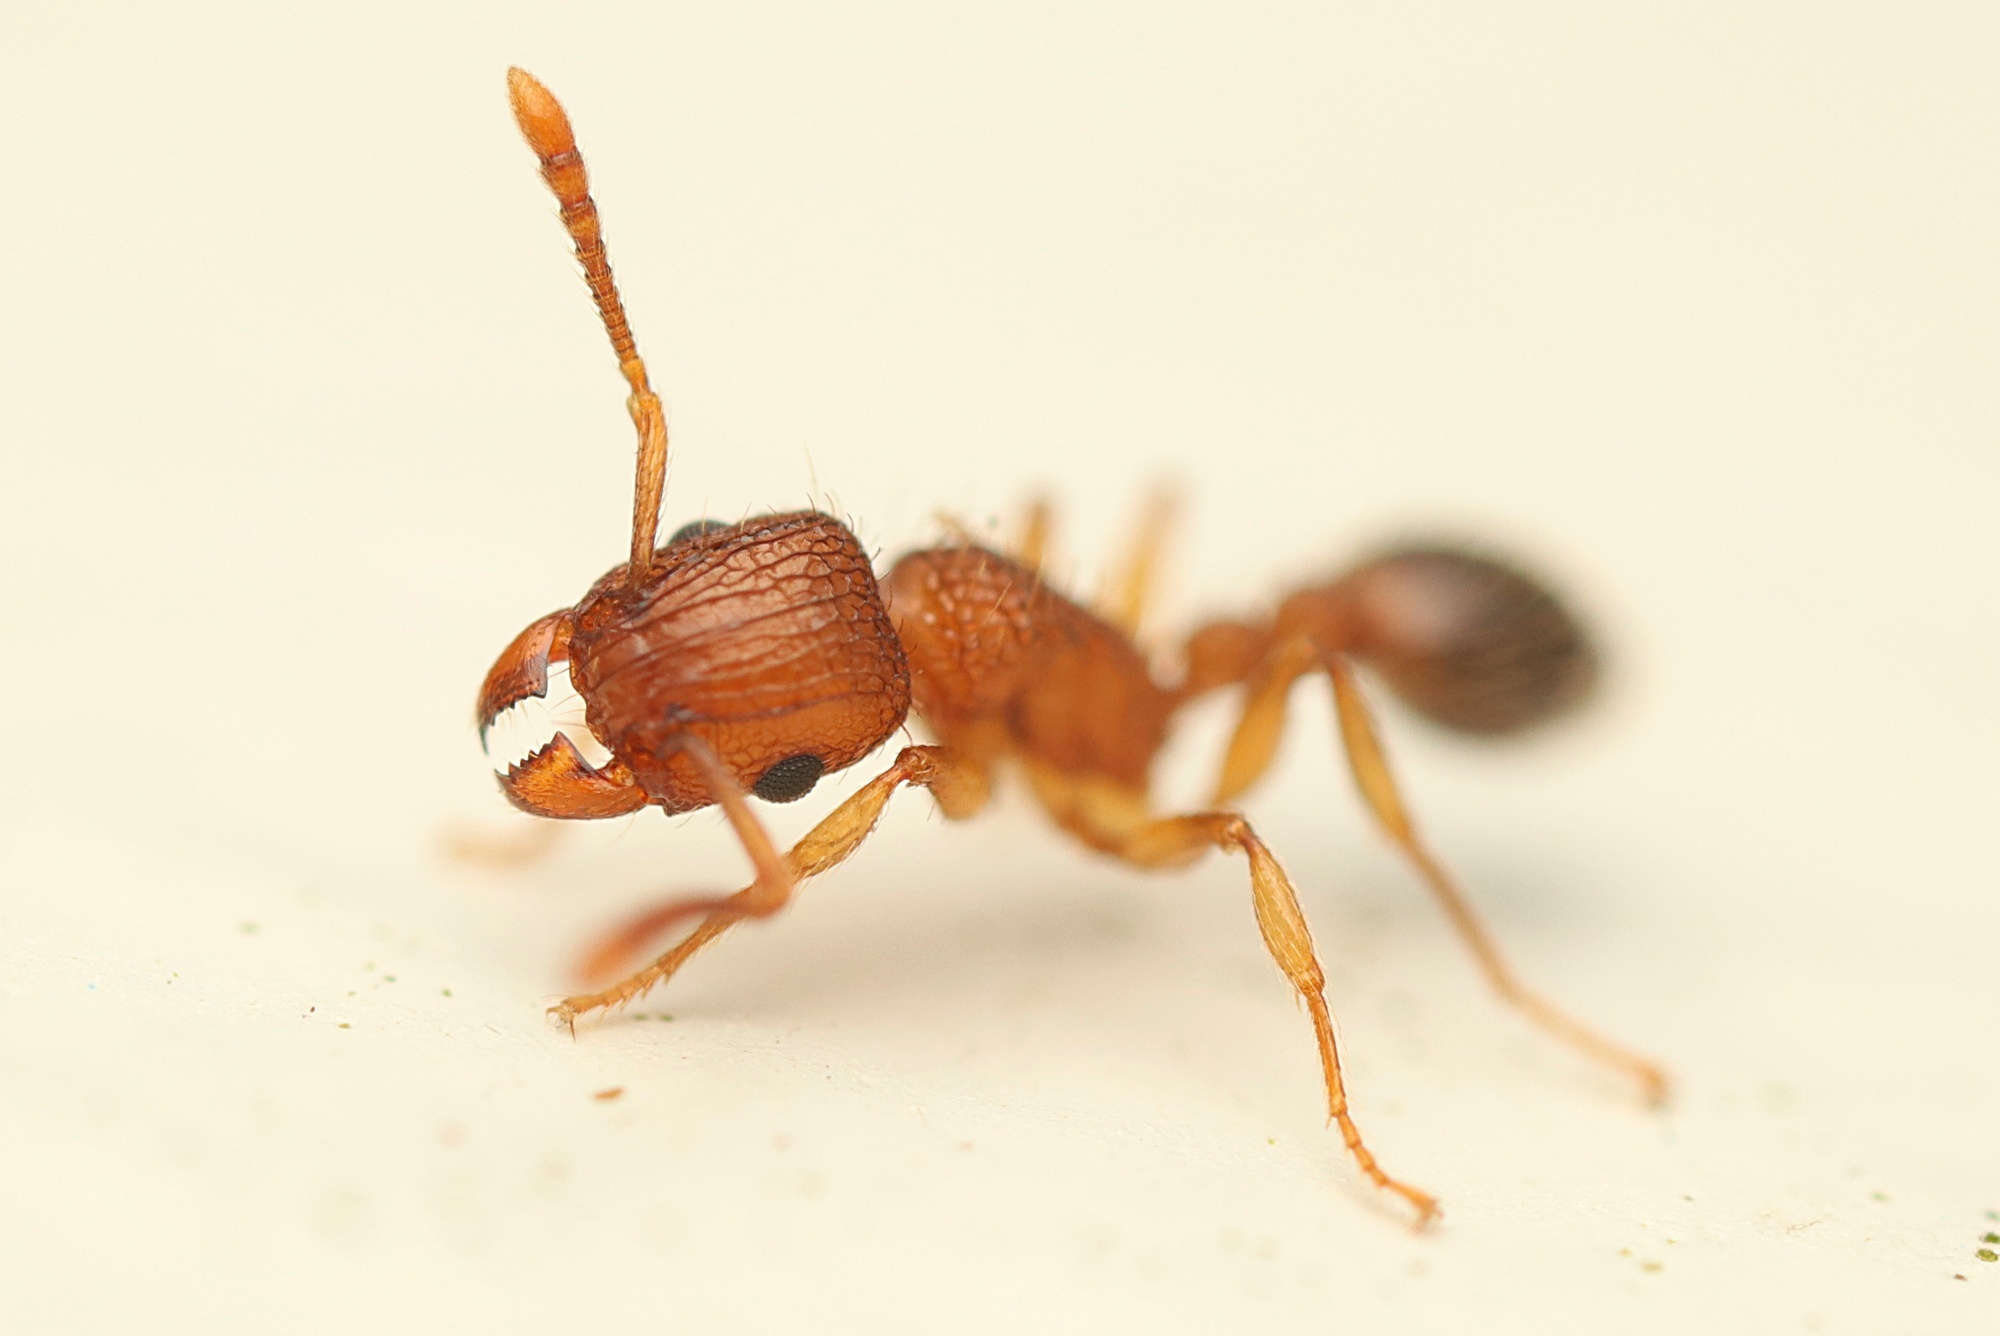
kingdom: Animalia
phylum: Arthropoda
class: Insecta
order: Hymenoptera
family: Formicidae
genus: Tetramorium
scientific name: Tetramorium bicarinatum
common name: Guinea ant
